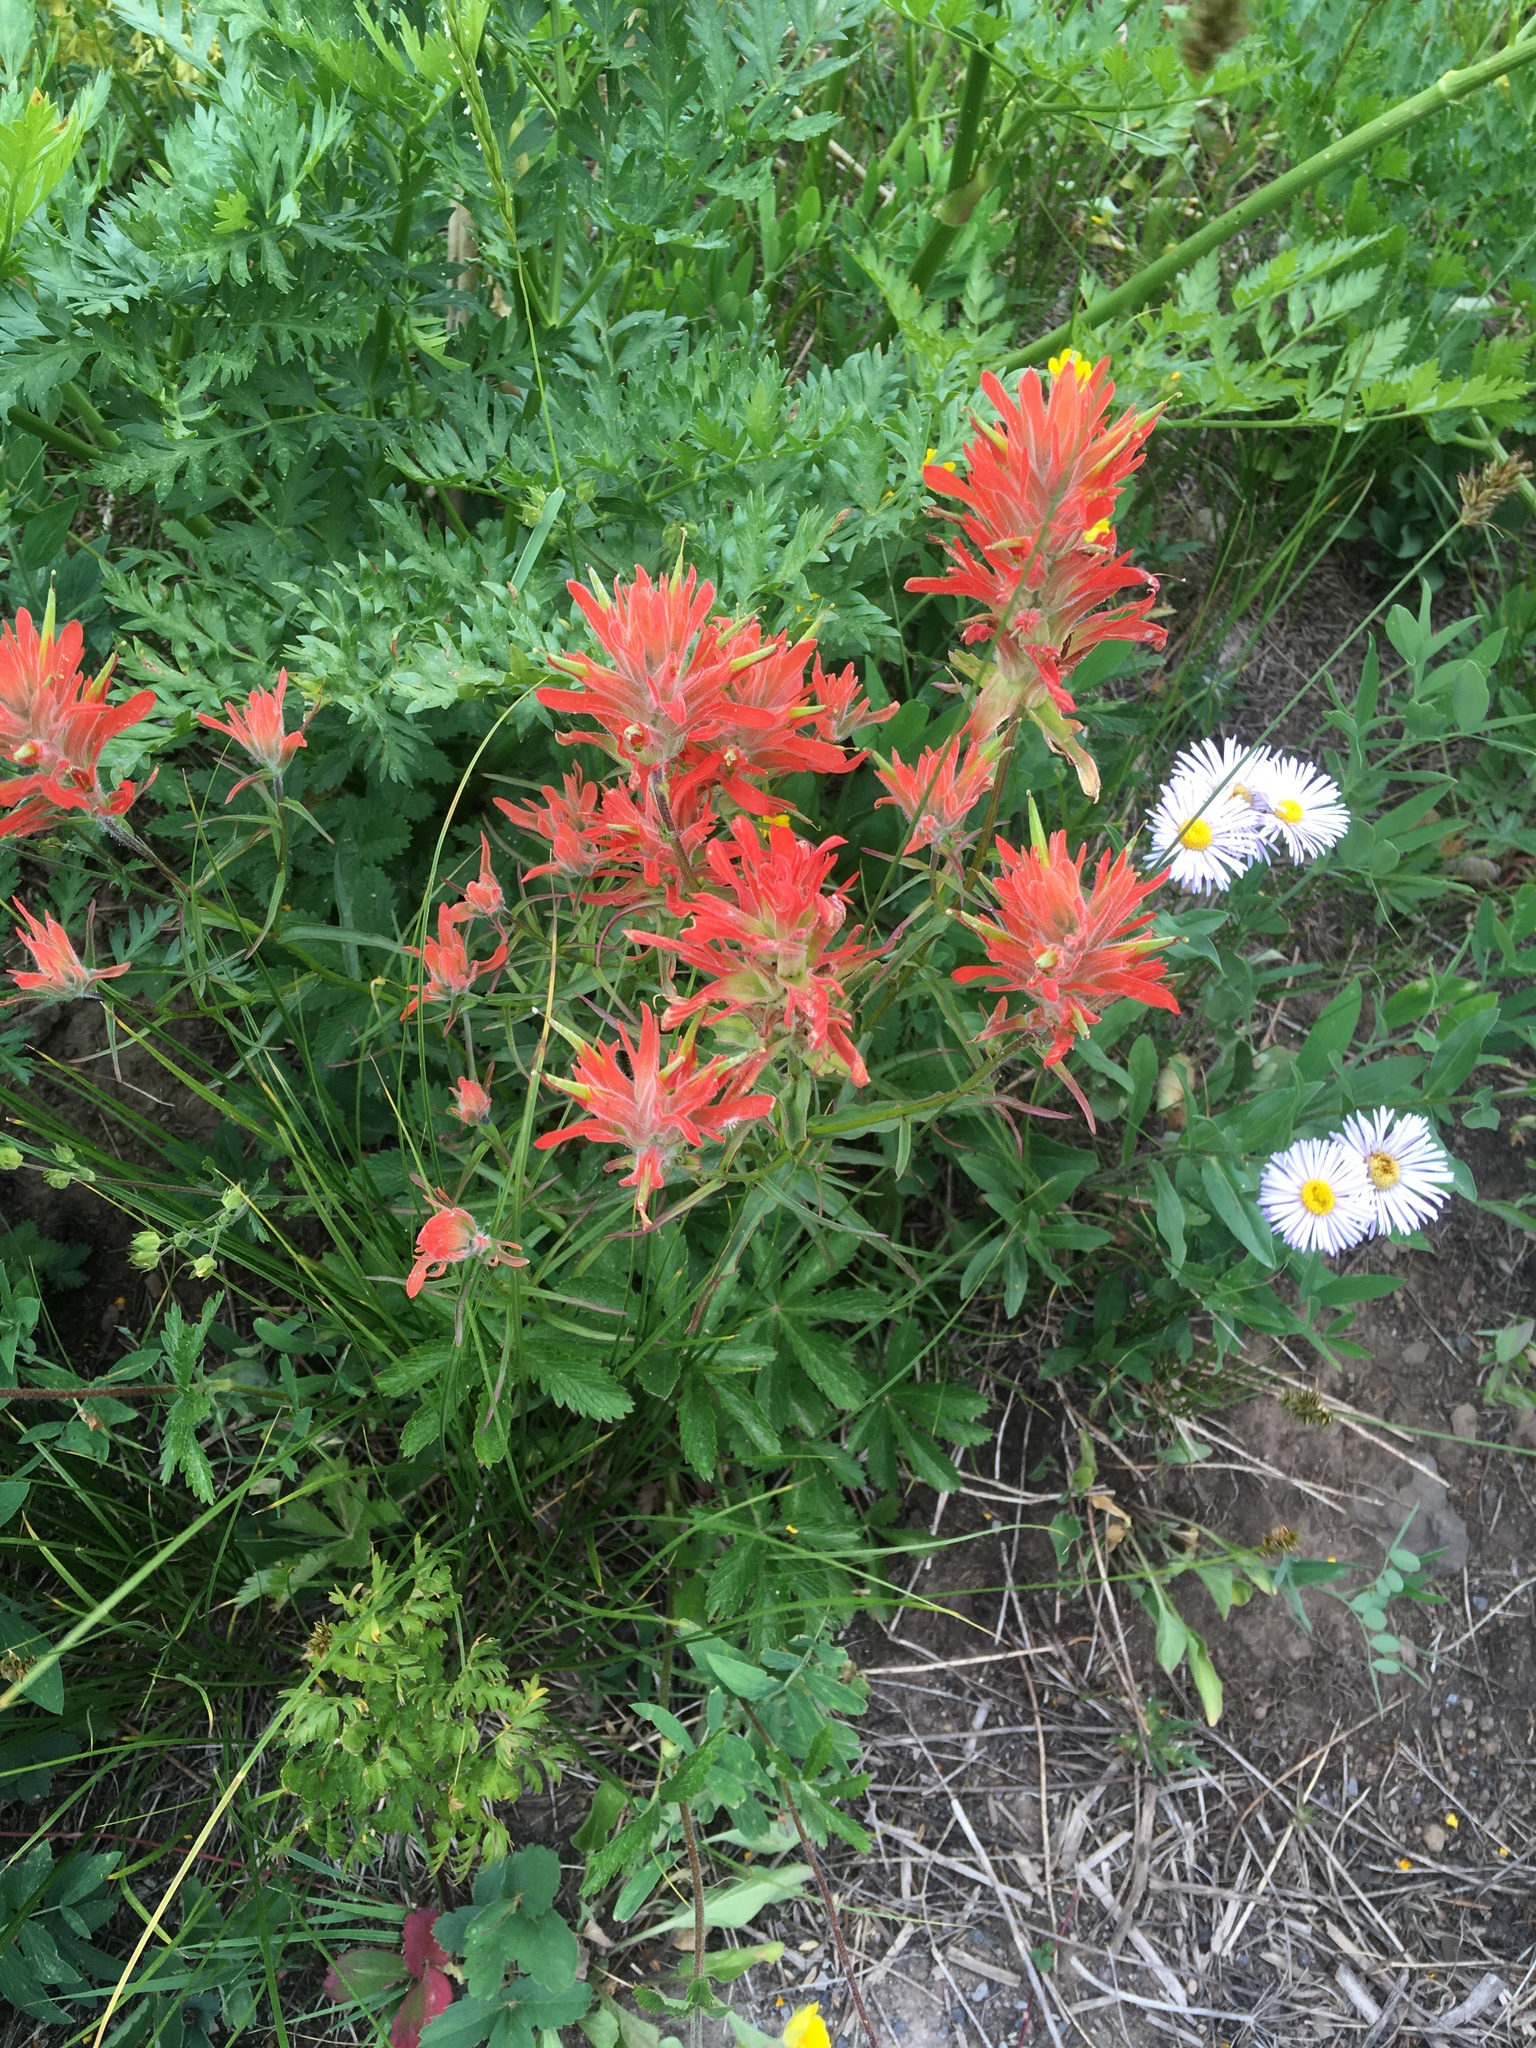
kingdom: Plantae
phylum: Tracheophyta
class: Magnoliopsida
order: Lamiales
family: Orobanchaceae
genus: Castilleja
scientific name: Castilleja miniata
